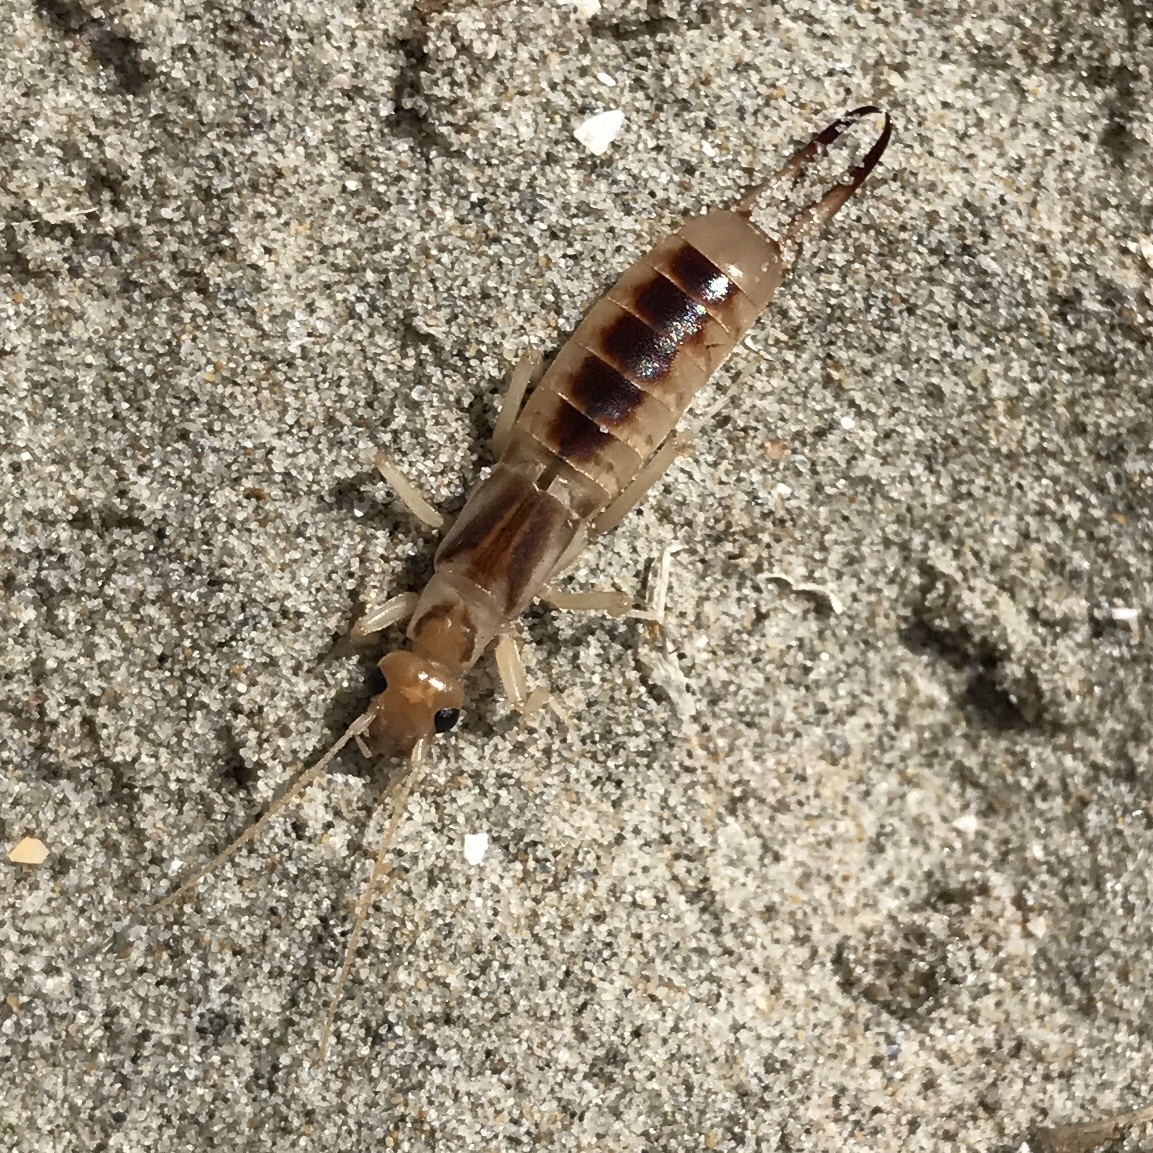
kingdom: Animalia
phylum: Arthropoda
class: Insecta
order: Dermaptera
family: Labiduridae
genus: Labidura
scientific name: Labidura riparia
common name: Striped earwig
